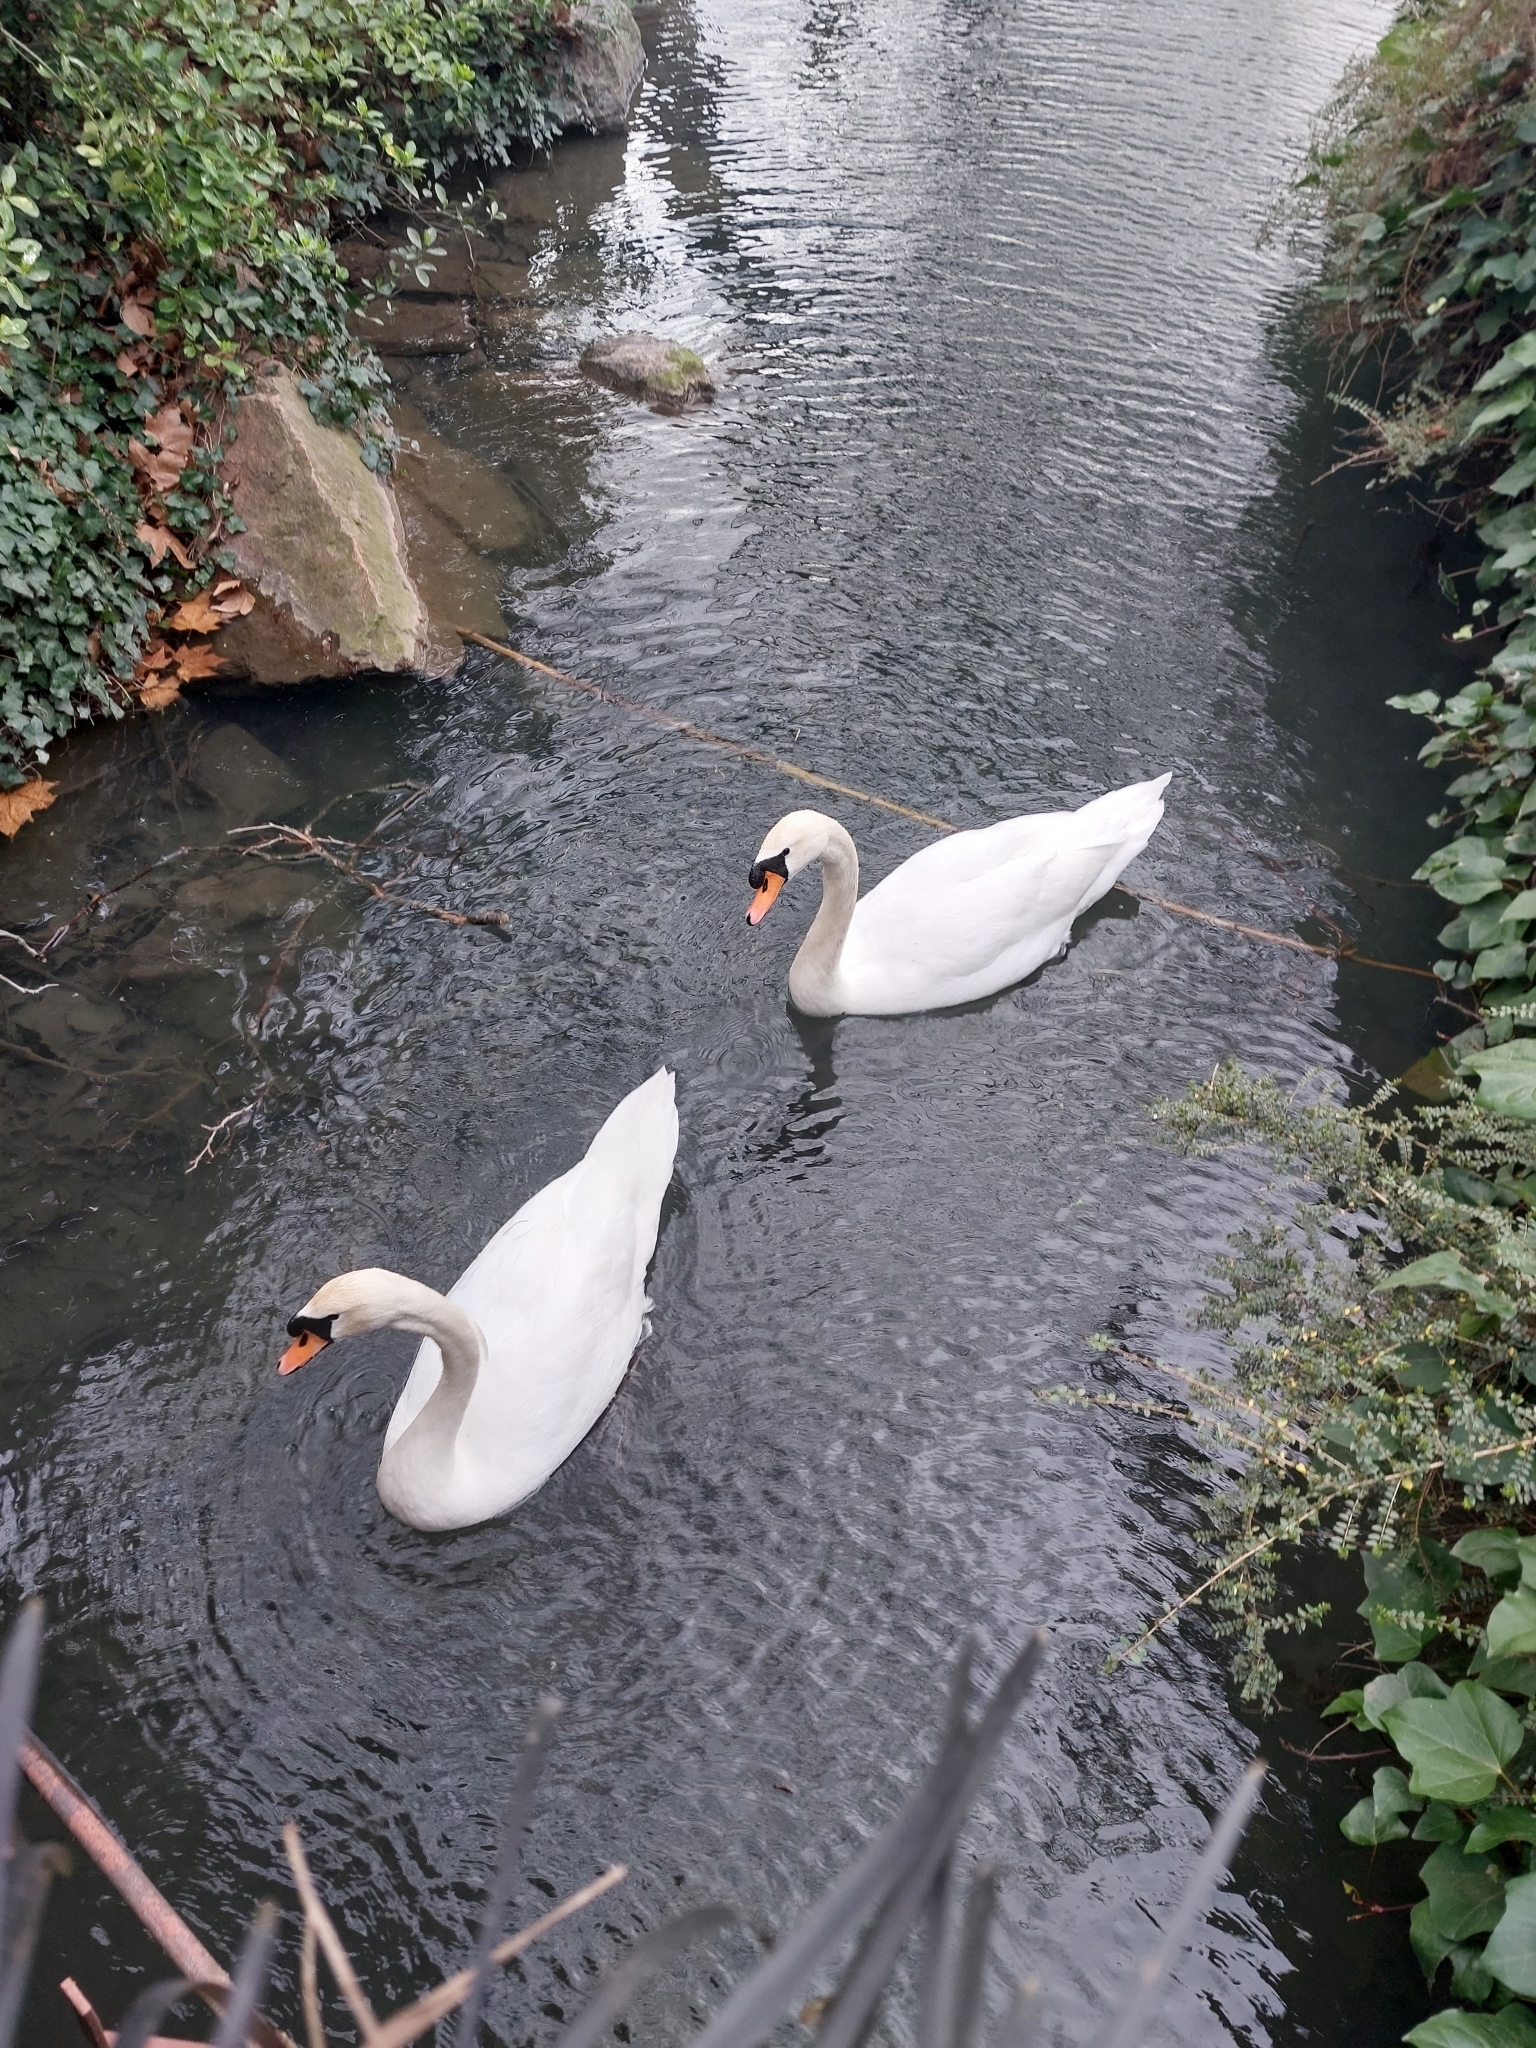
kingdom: Animalia
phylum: Chordata
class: Aves
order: Anseriformes
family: Anatidae
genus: Cygnus
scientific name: Cygnus olor
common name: Mute swan
